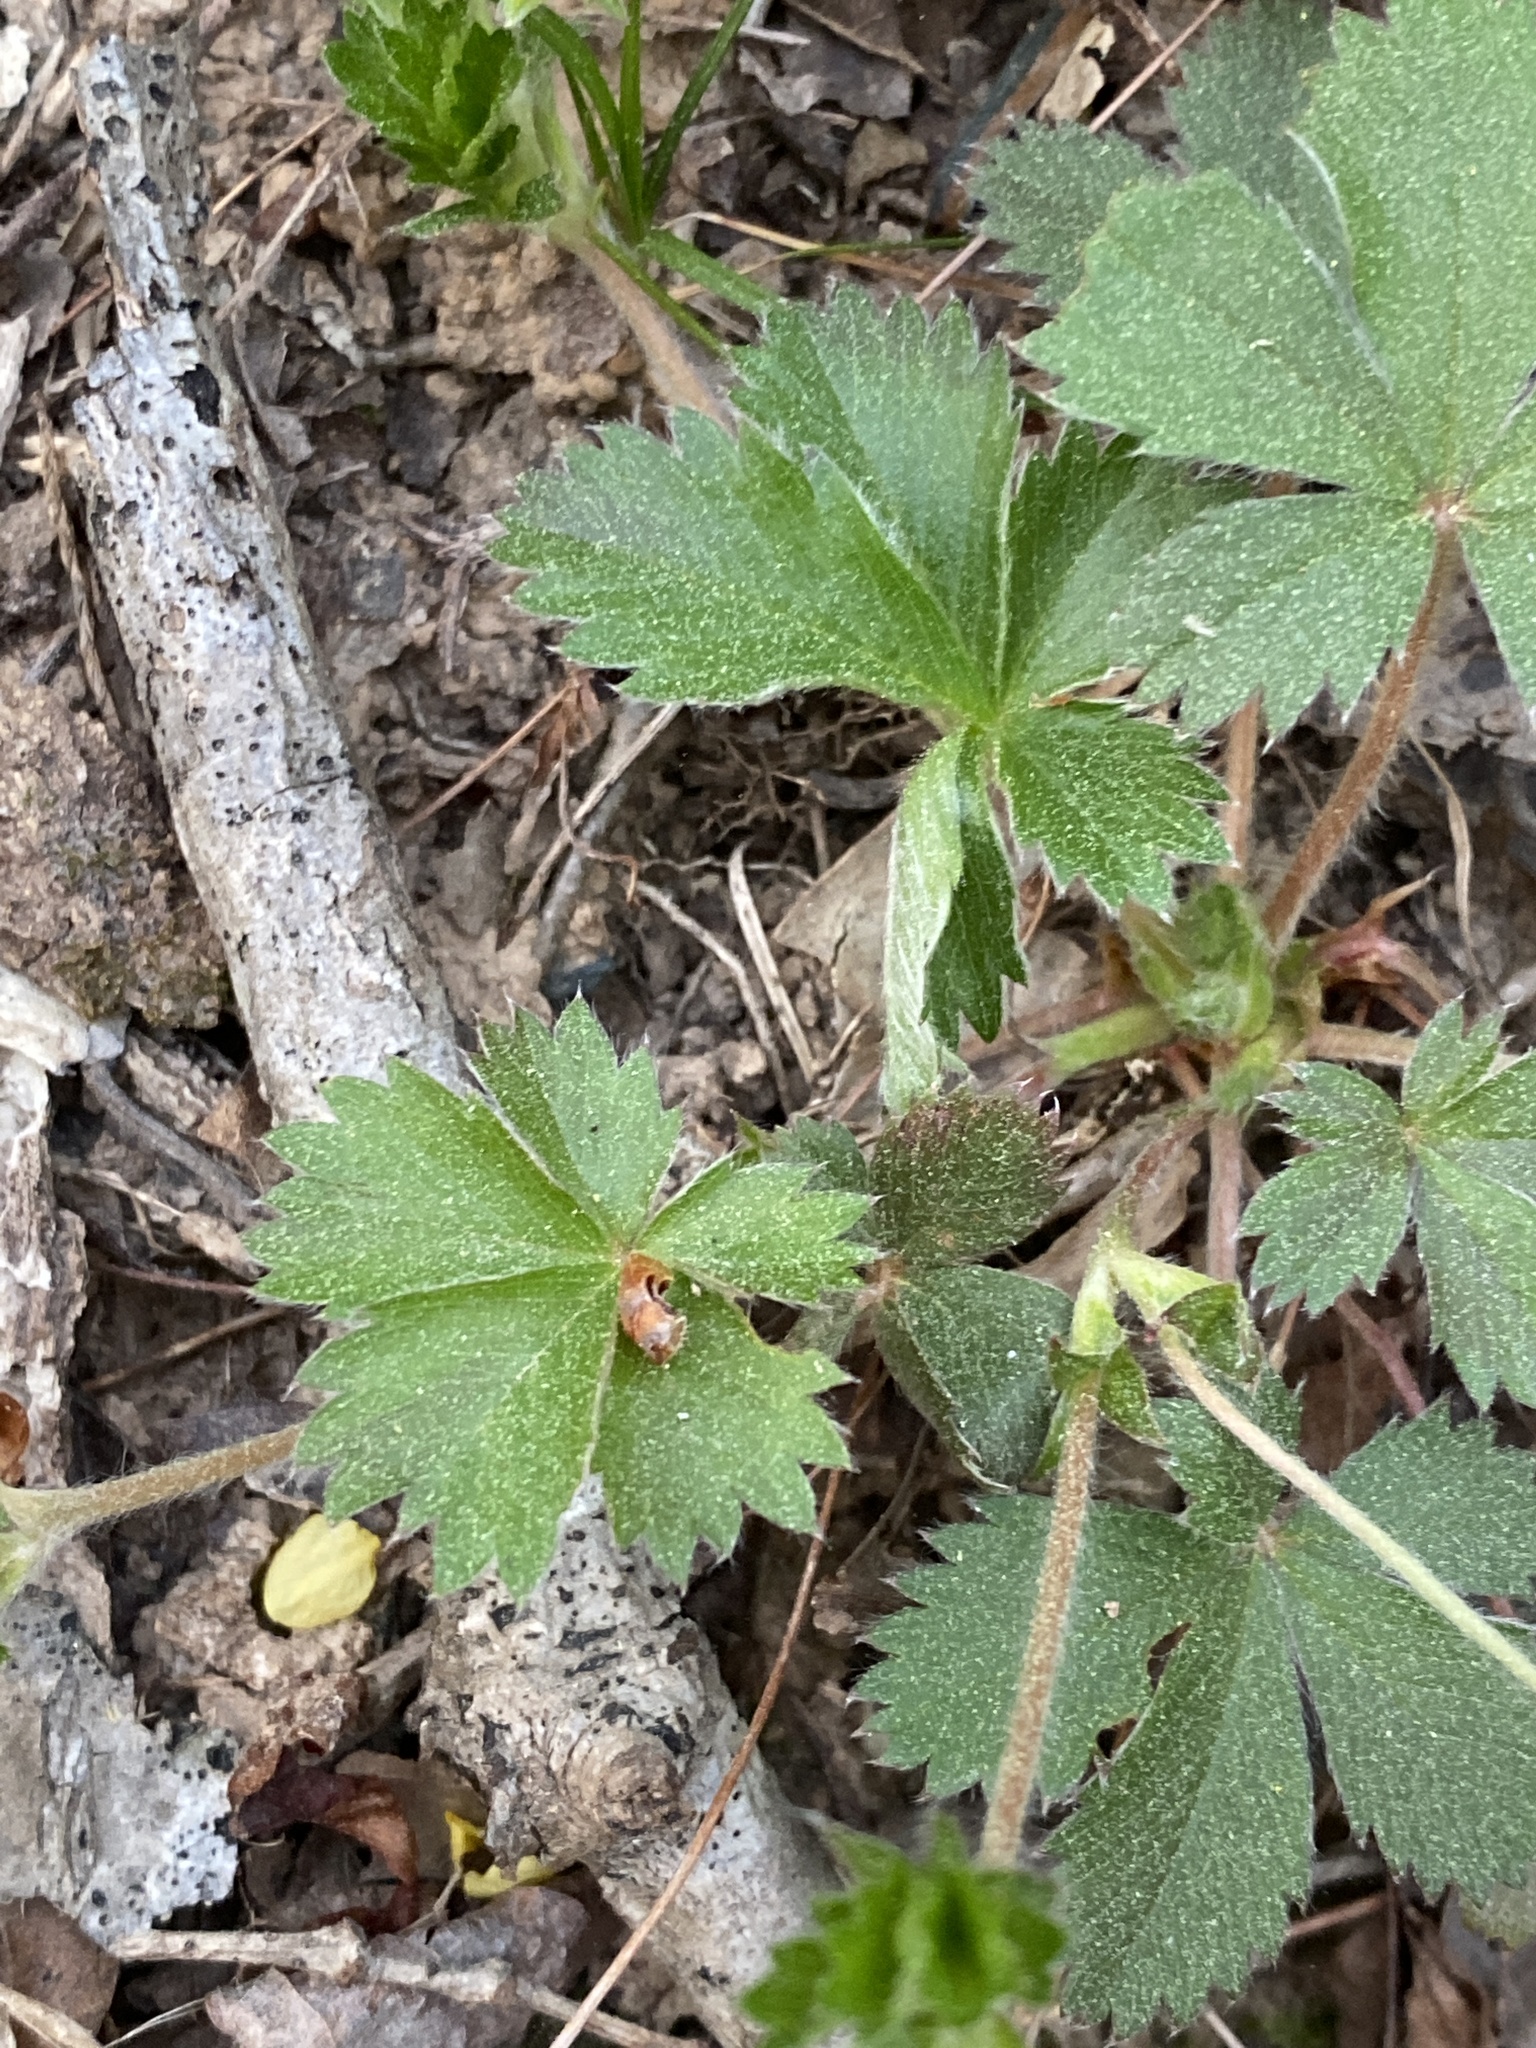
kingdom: Plantae
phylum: Tracheophyta
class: Magnoliopsida
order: Rosales
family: Rosaceae
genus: Potentilla
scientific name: Potentilla canadensis
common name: Canada cinquefoil
